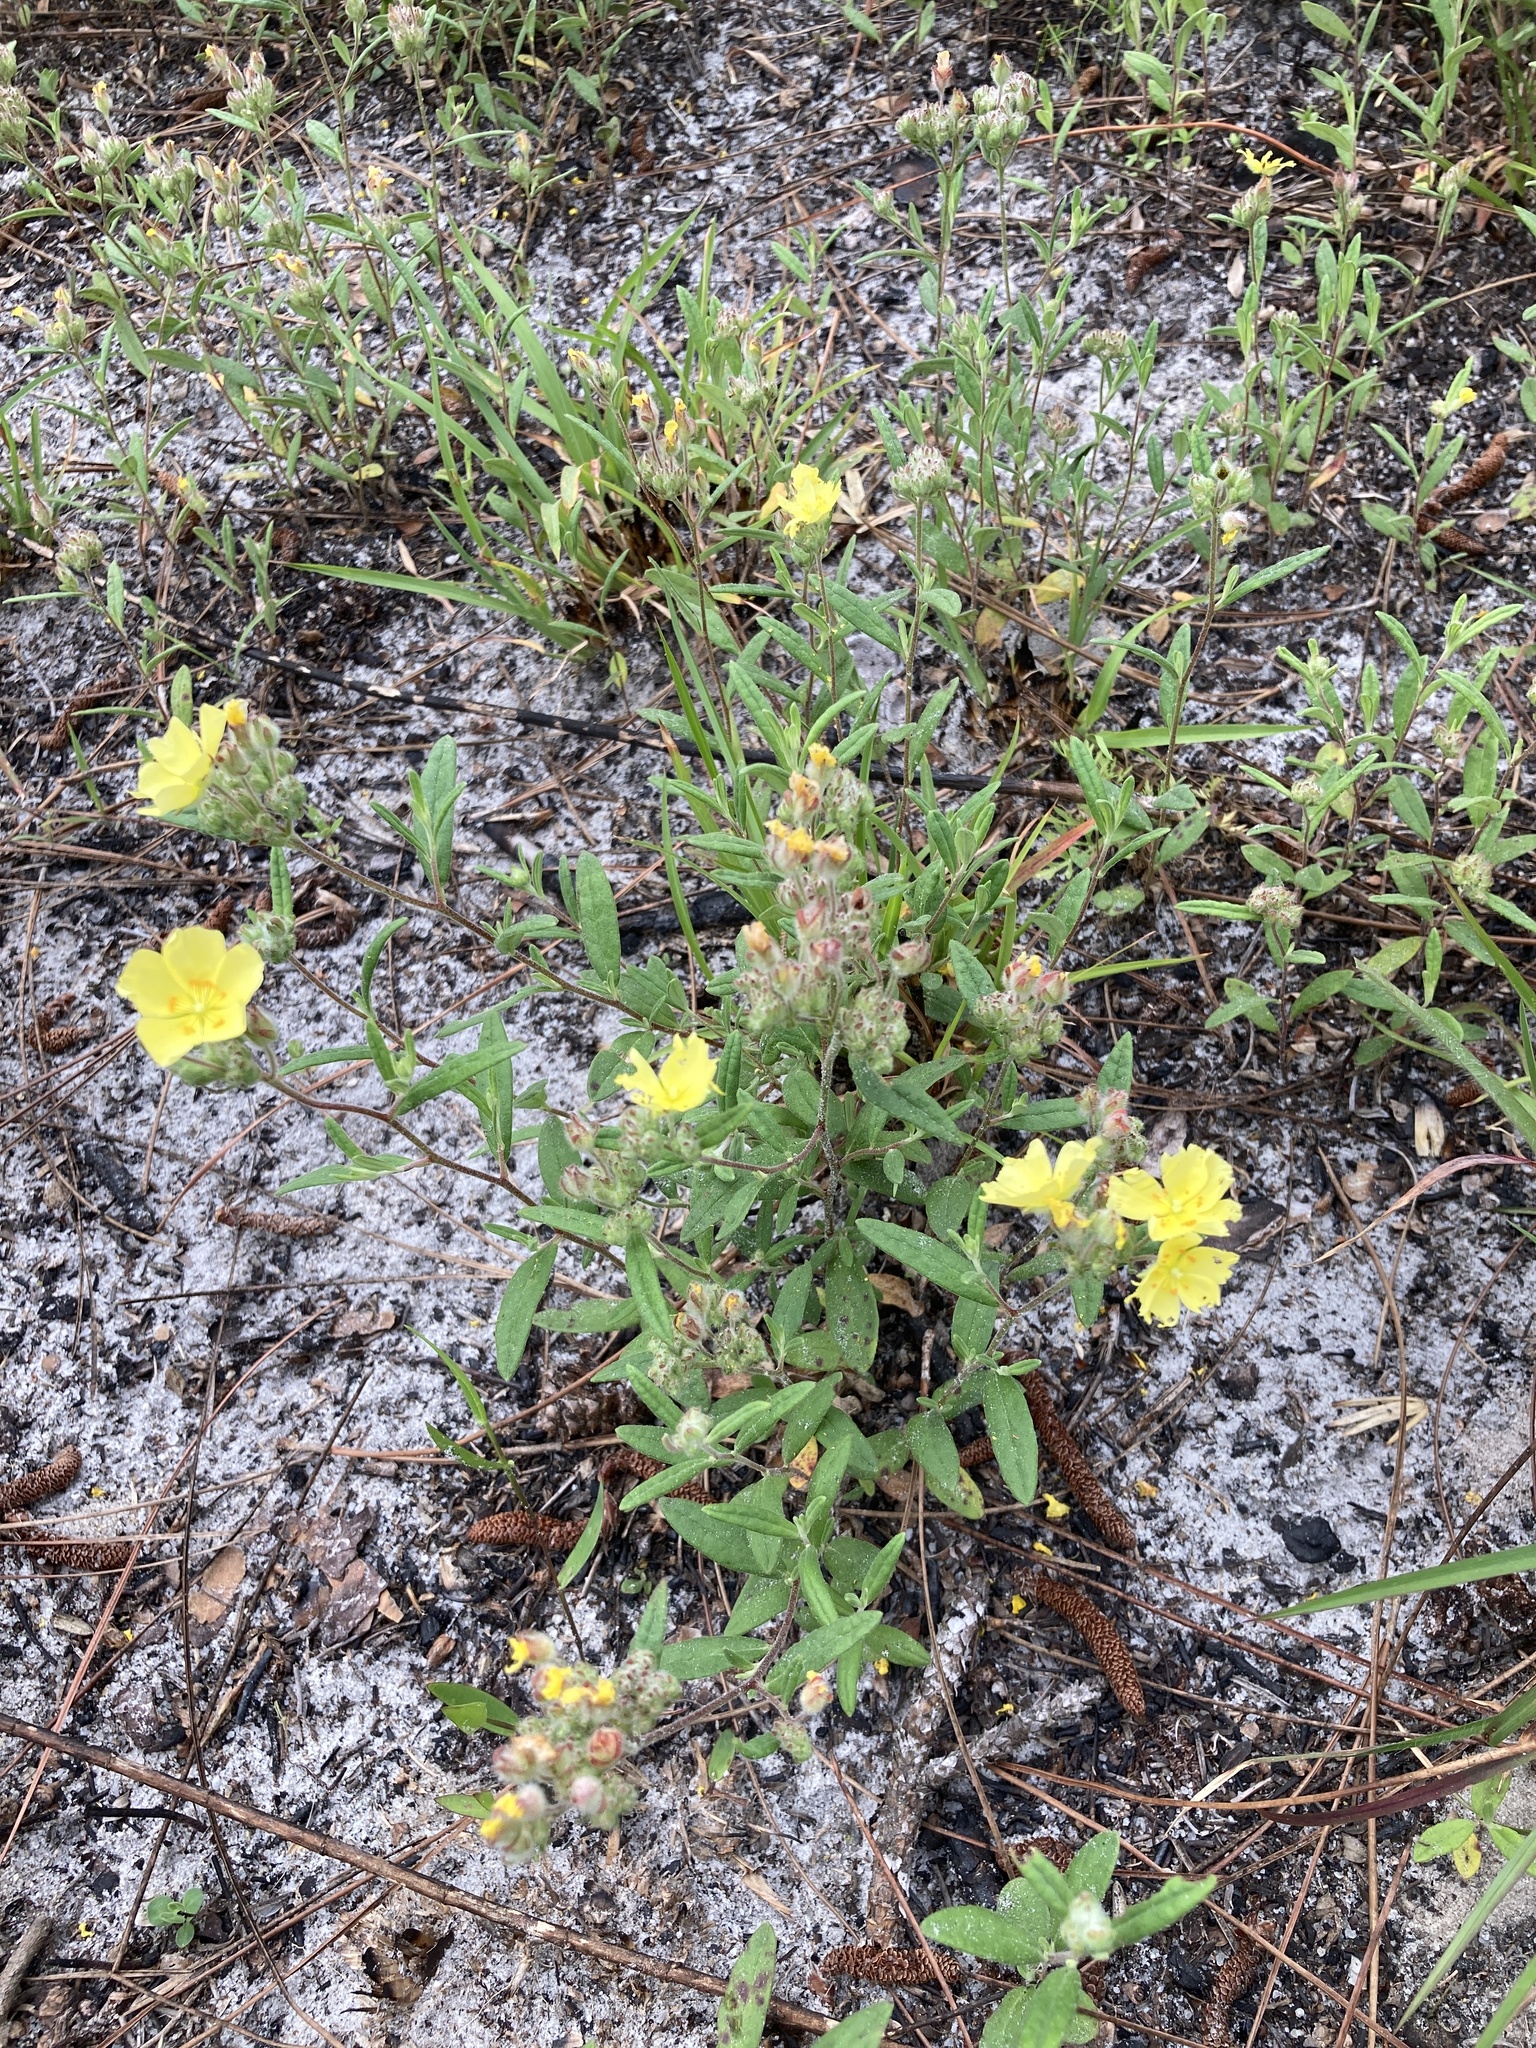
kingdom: Plantae
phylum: Tracheophyta
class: Magnoliopsida
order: Malvales
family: Cistaceae
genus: Crocanthemum
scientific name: Crocanthemum corymbosum
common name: Pinebarren sun-rose
